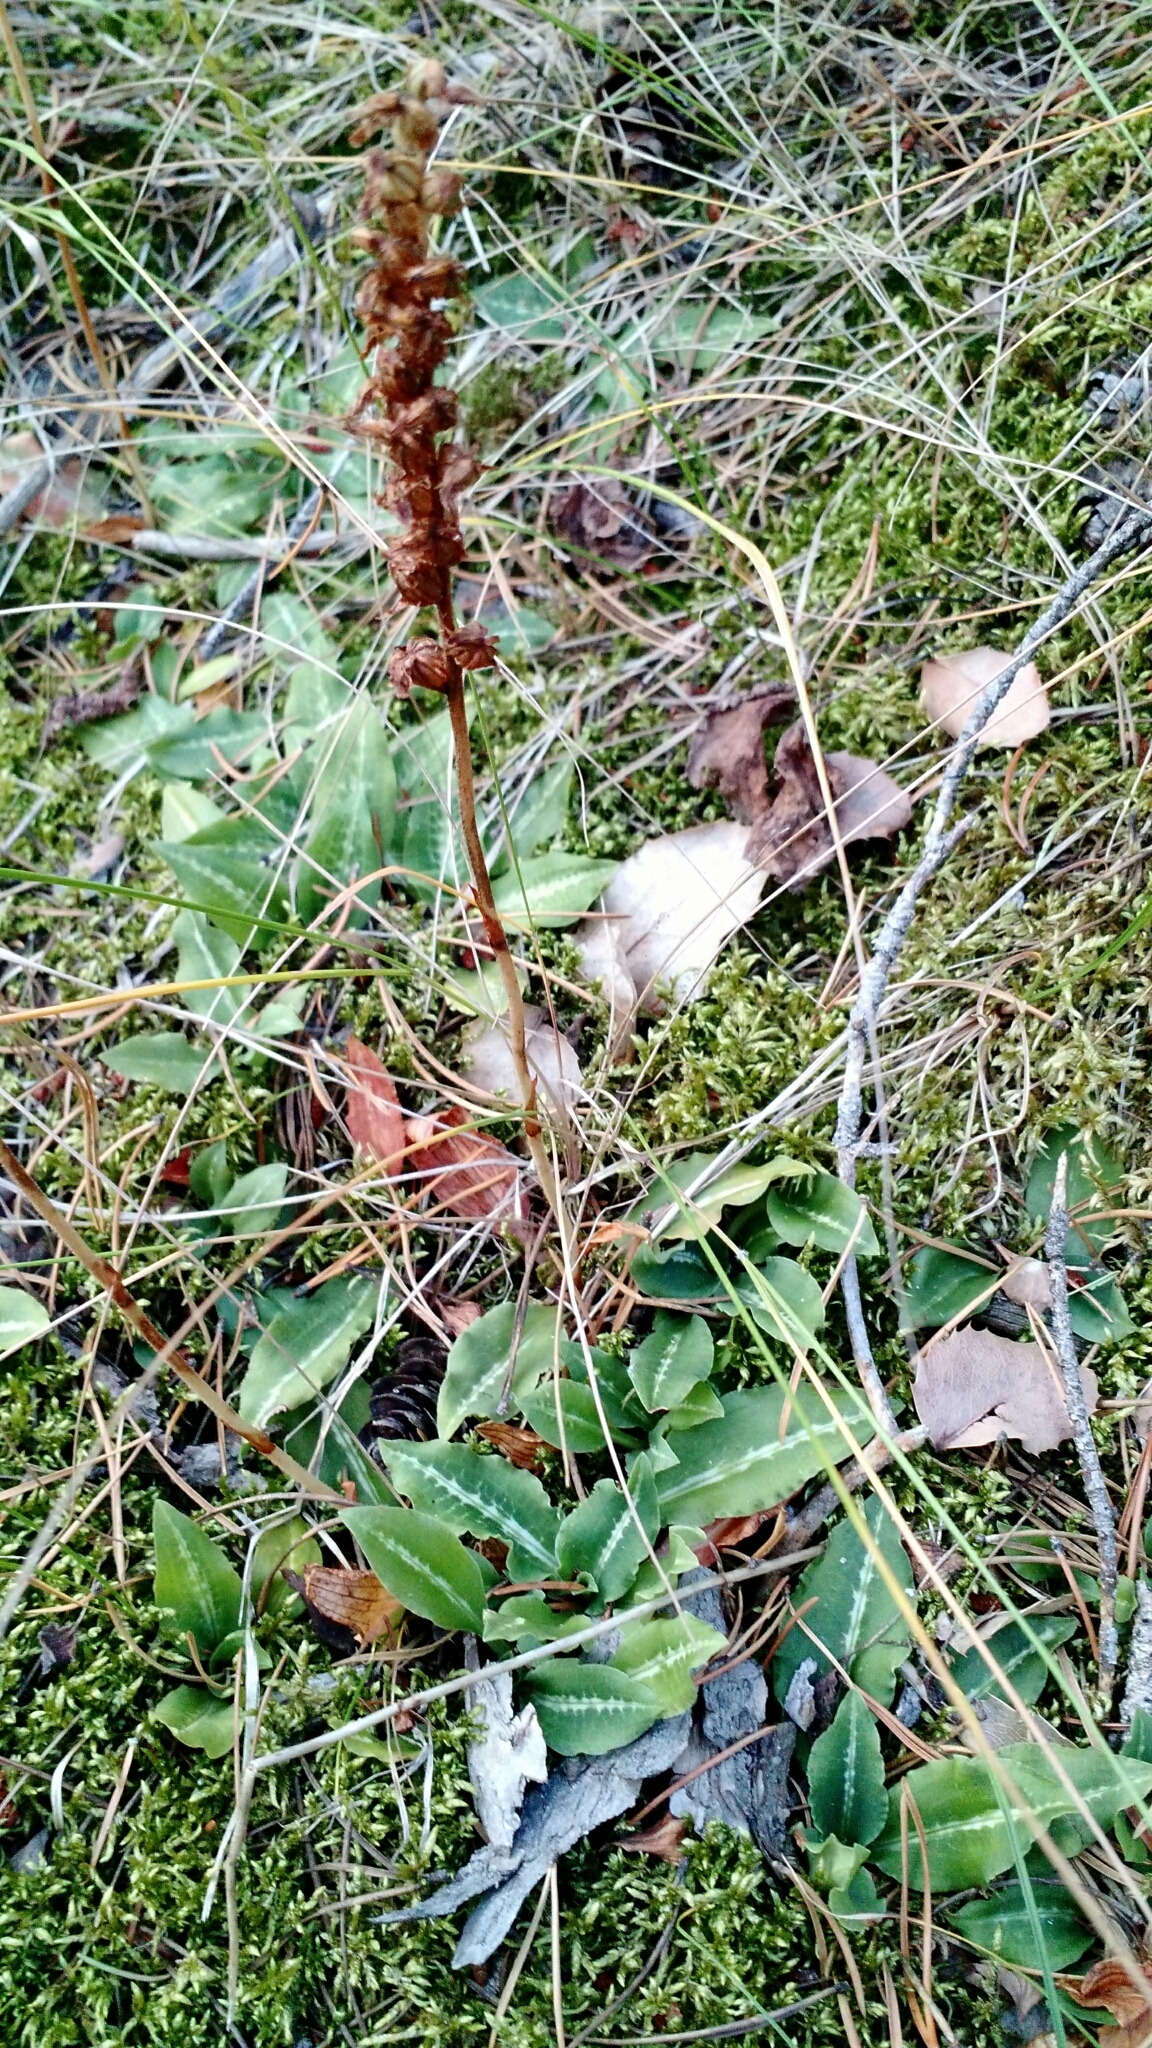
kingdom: Plantae
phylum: Tracheophyta
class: Liliopsida
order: Asparagales
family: Orchidaceae
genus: Goodyera
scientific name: Goodyera oblongifolia
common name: Giant rattlesnake-plantain
